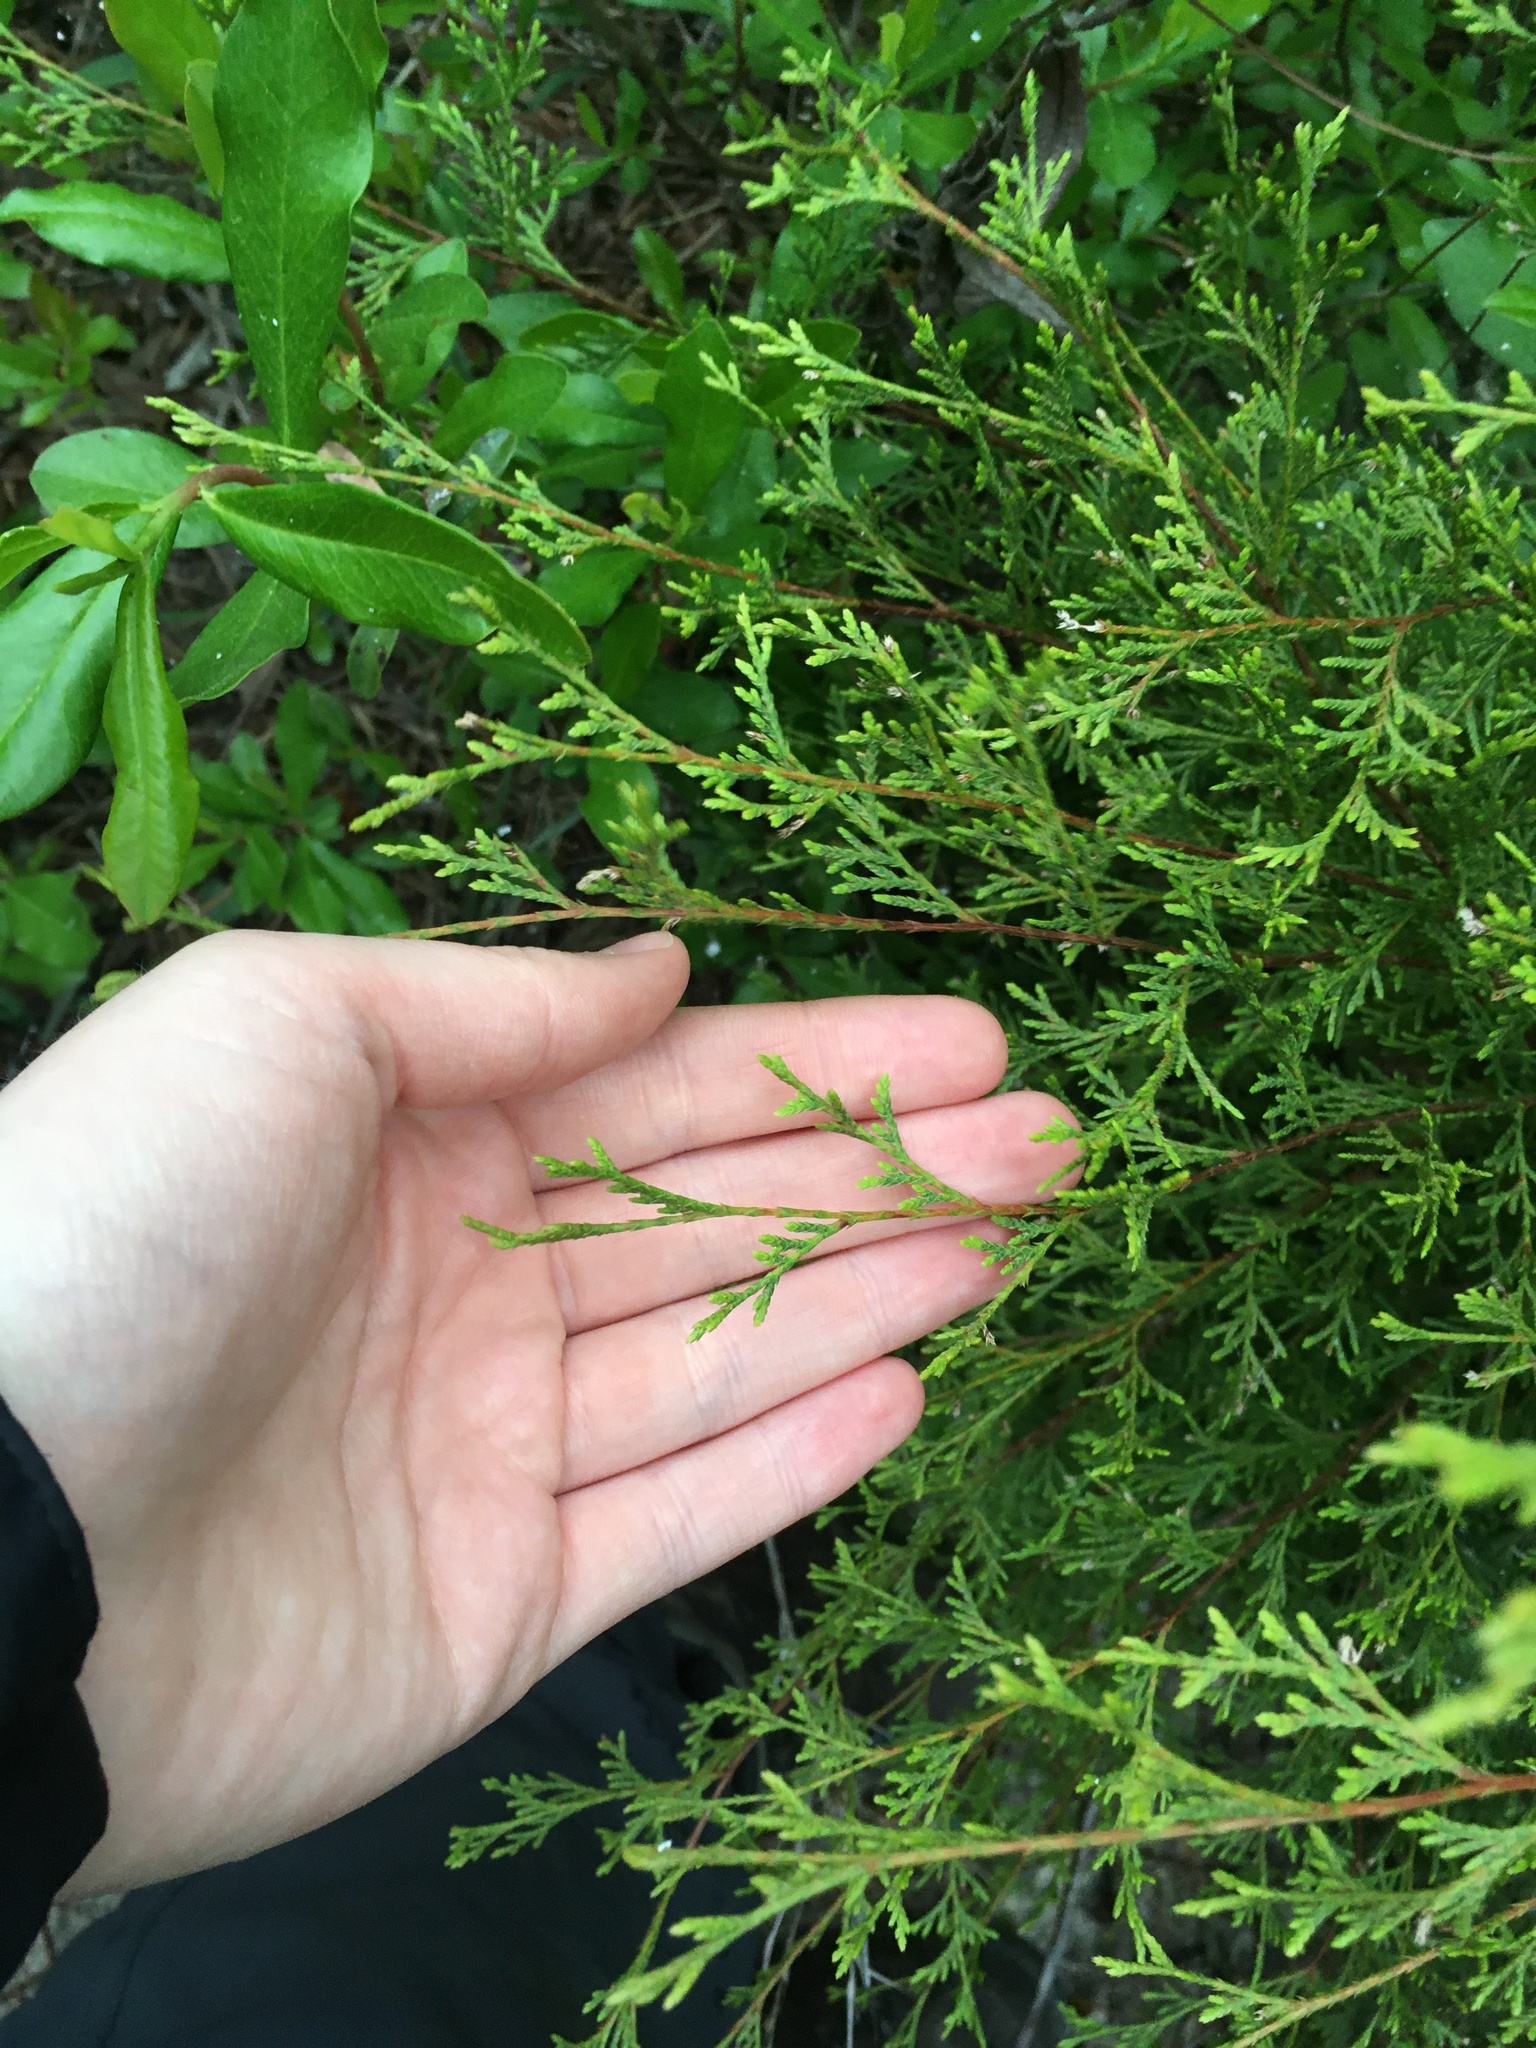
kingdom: Plantae
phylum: Tracheophyta
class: Pinopsida
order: Pinales
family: Cupressaceae
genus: Chamaecyparis
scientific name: Chamaecyparis thyoides
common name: Atlantic white cedar
